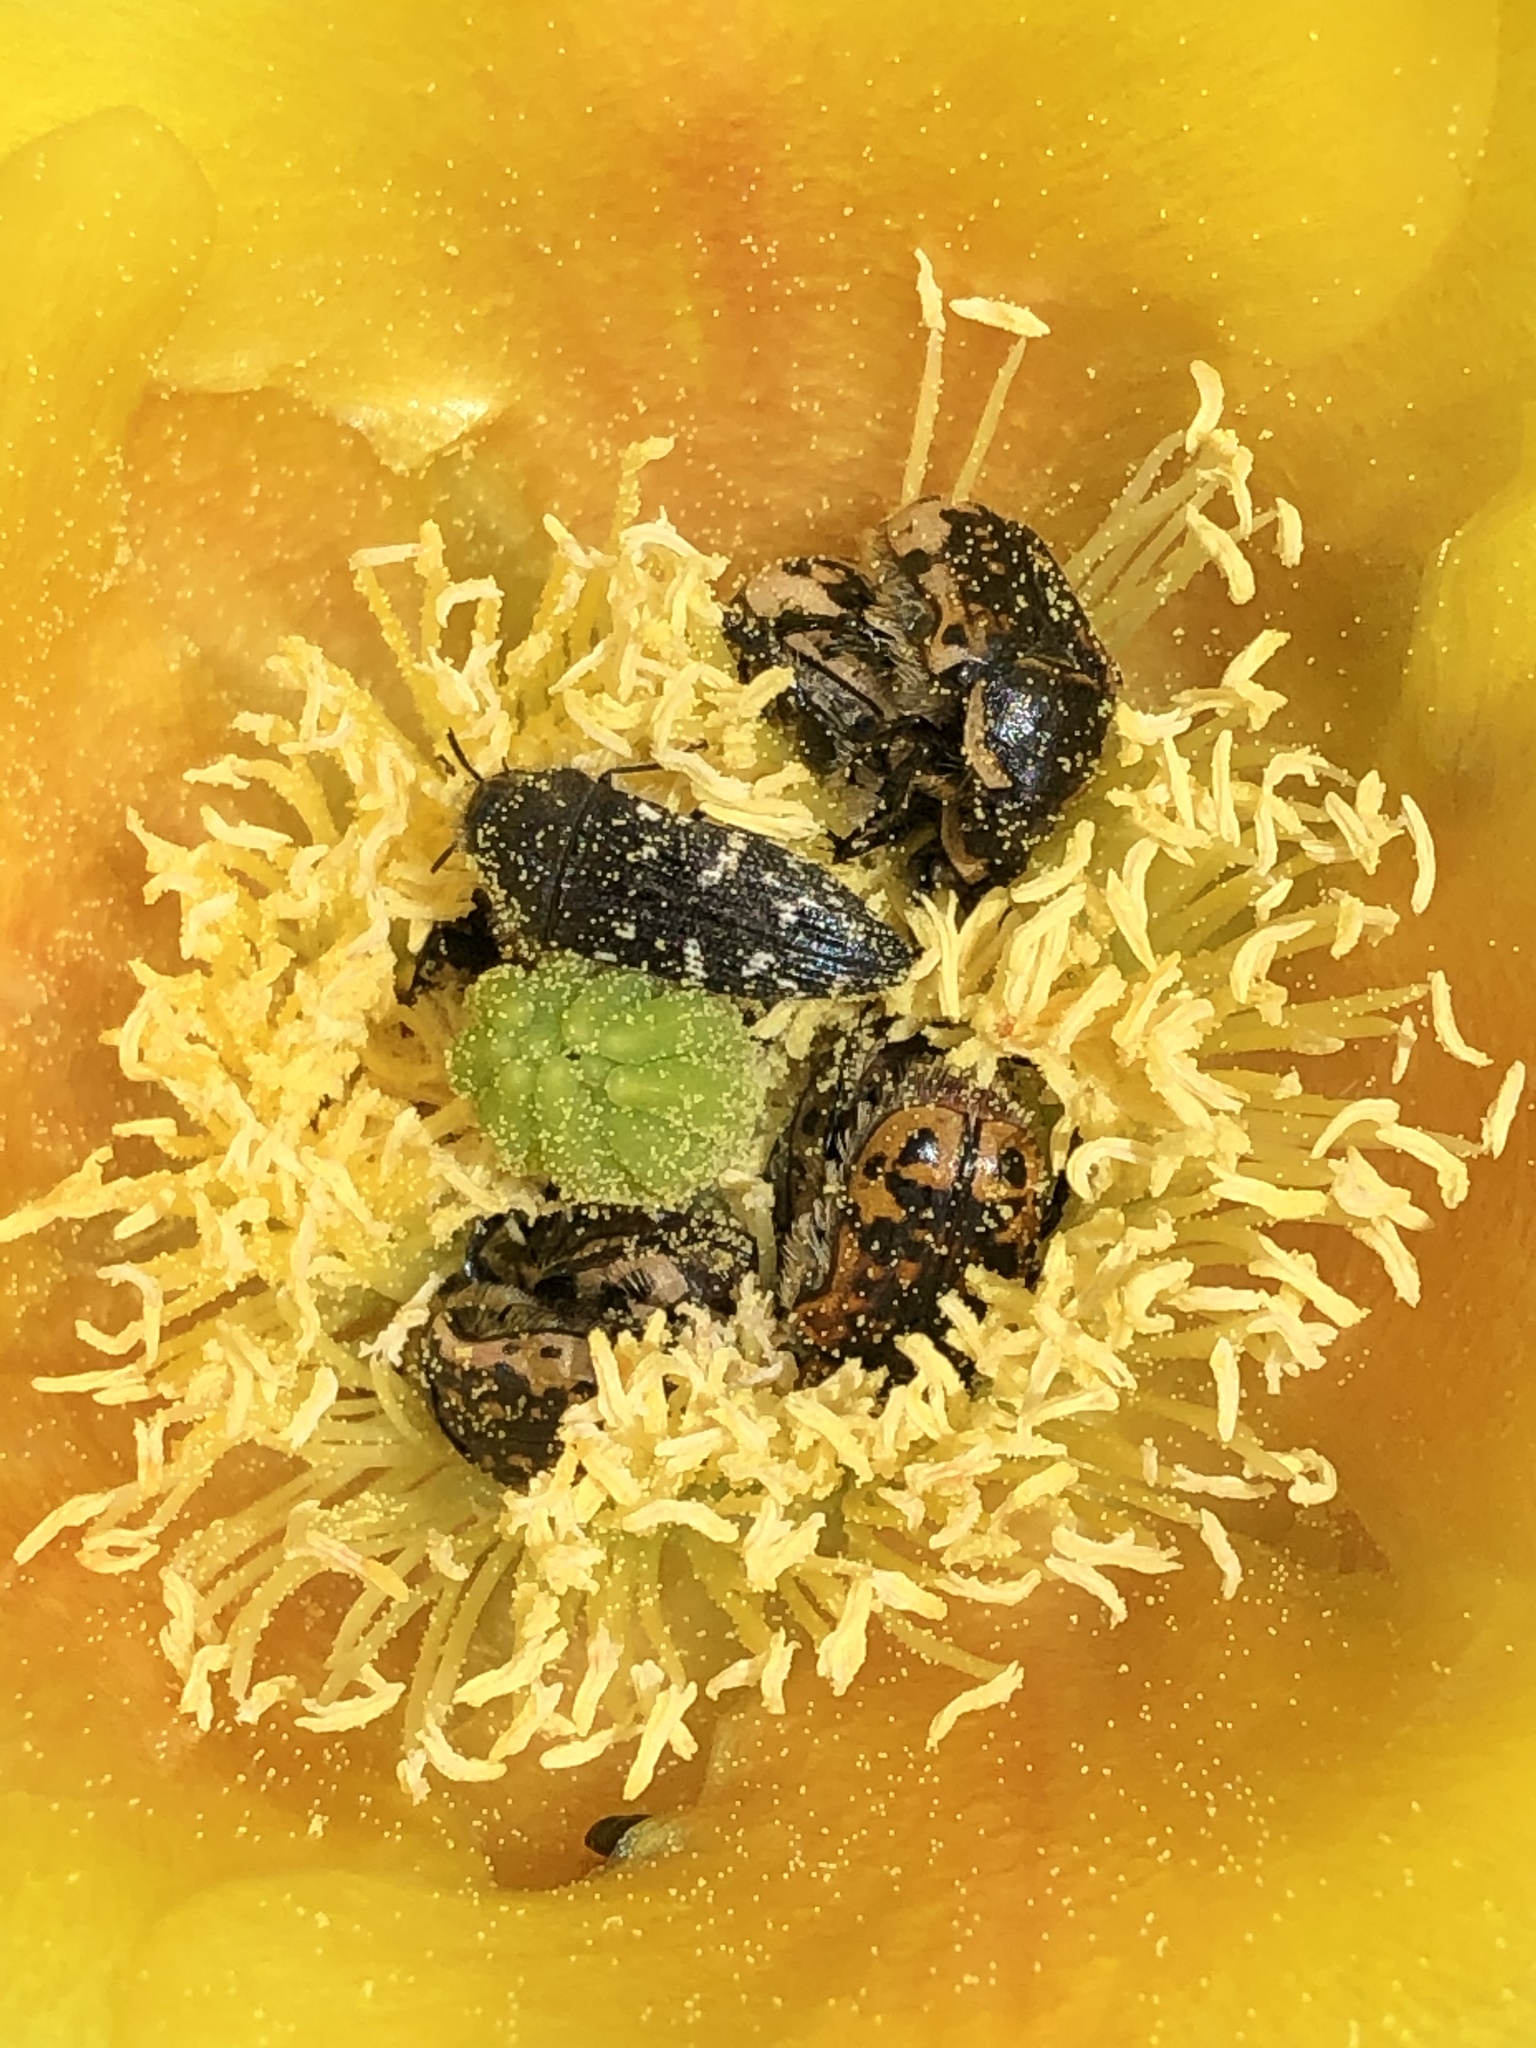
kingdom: Animalia
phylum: Arthropoda
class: Insecta
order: Coleoptera
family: Scarabaeidae
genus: Euphoria
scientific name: Euphoria kernii
